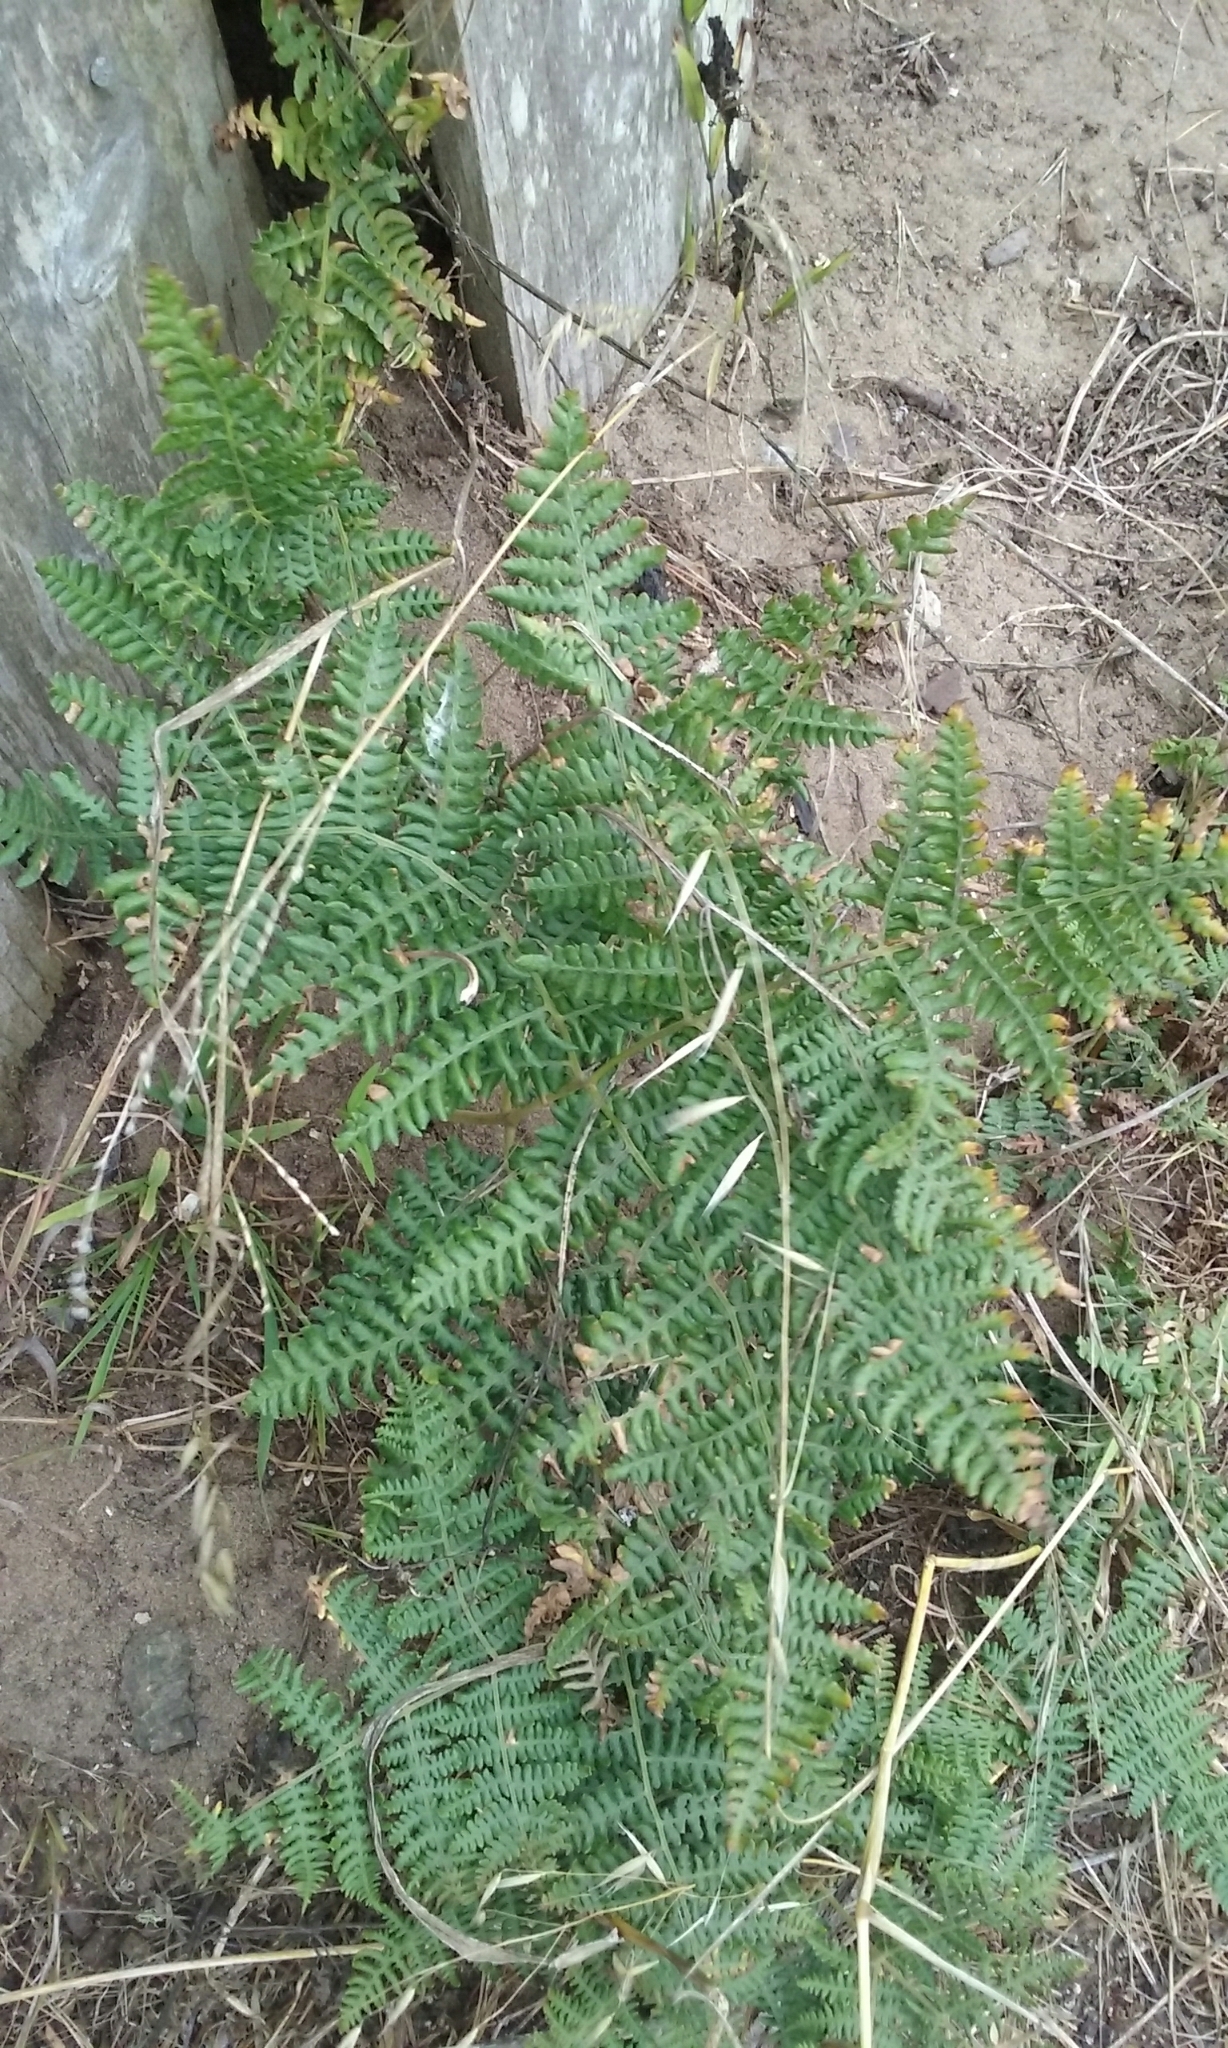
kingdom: Plantae
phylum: Tracheophyta
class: Polypodiopsida
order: Polypodiales
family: Dennstaedtiaceae
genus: Pteridium
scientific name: Pteridium aquilinum
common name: Bracken
